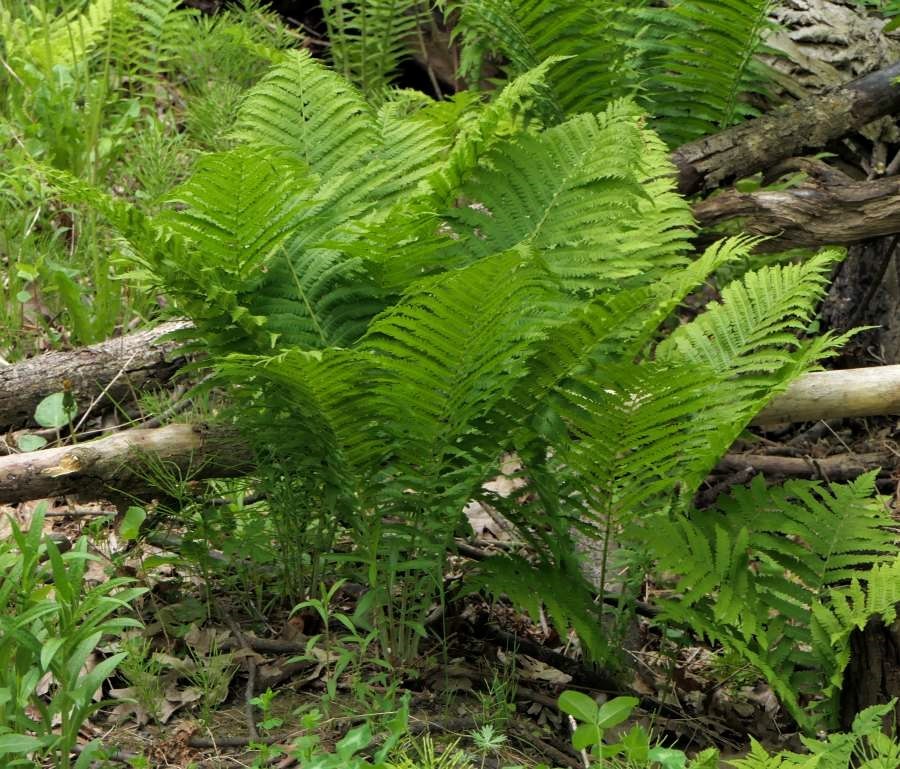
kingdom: Plantae
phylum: Tracheophyta
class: Polypodiopsida
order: Polypodiales
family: Onocleaceae
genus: Matteuccia
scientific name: Matteuccia struthiopteris
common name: Ostrich fern
